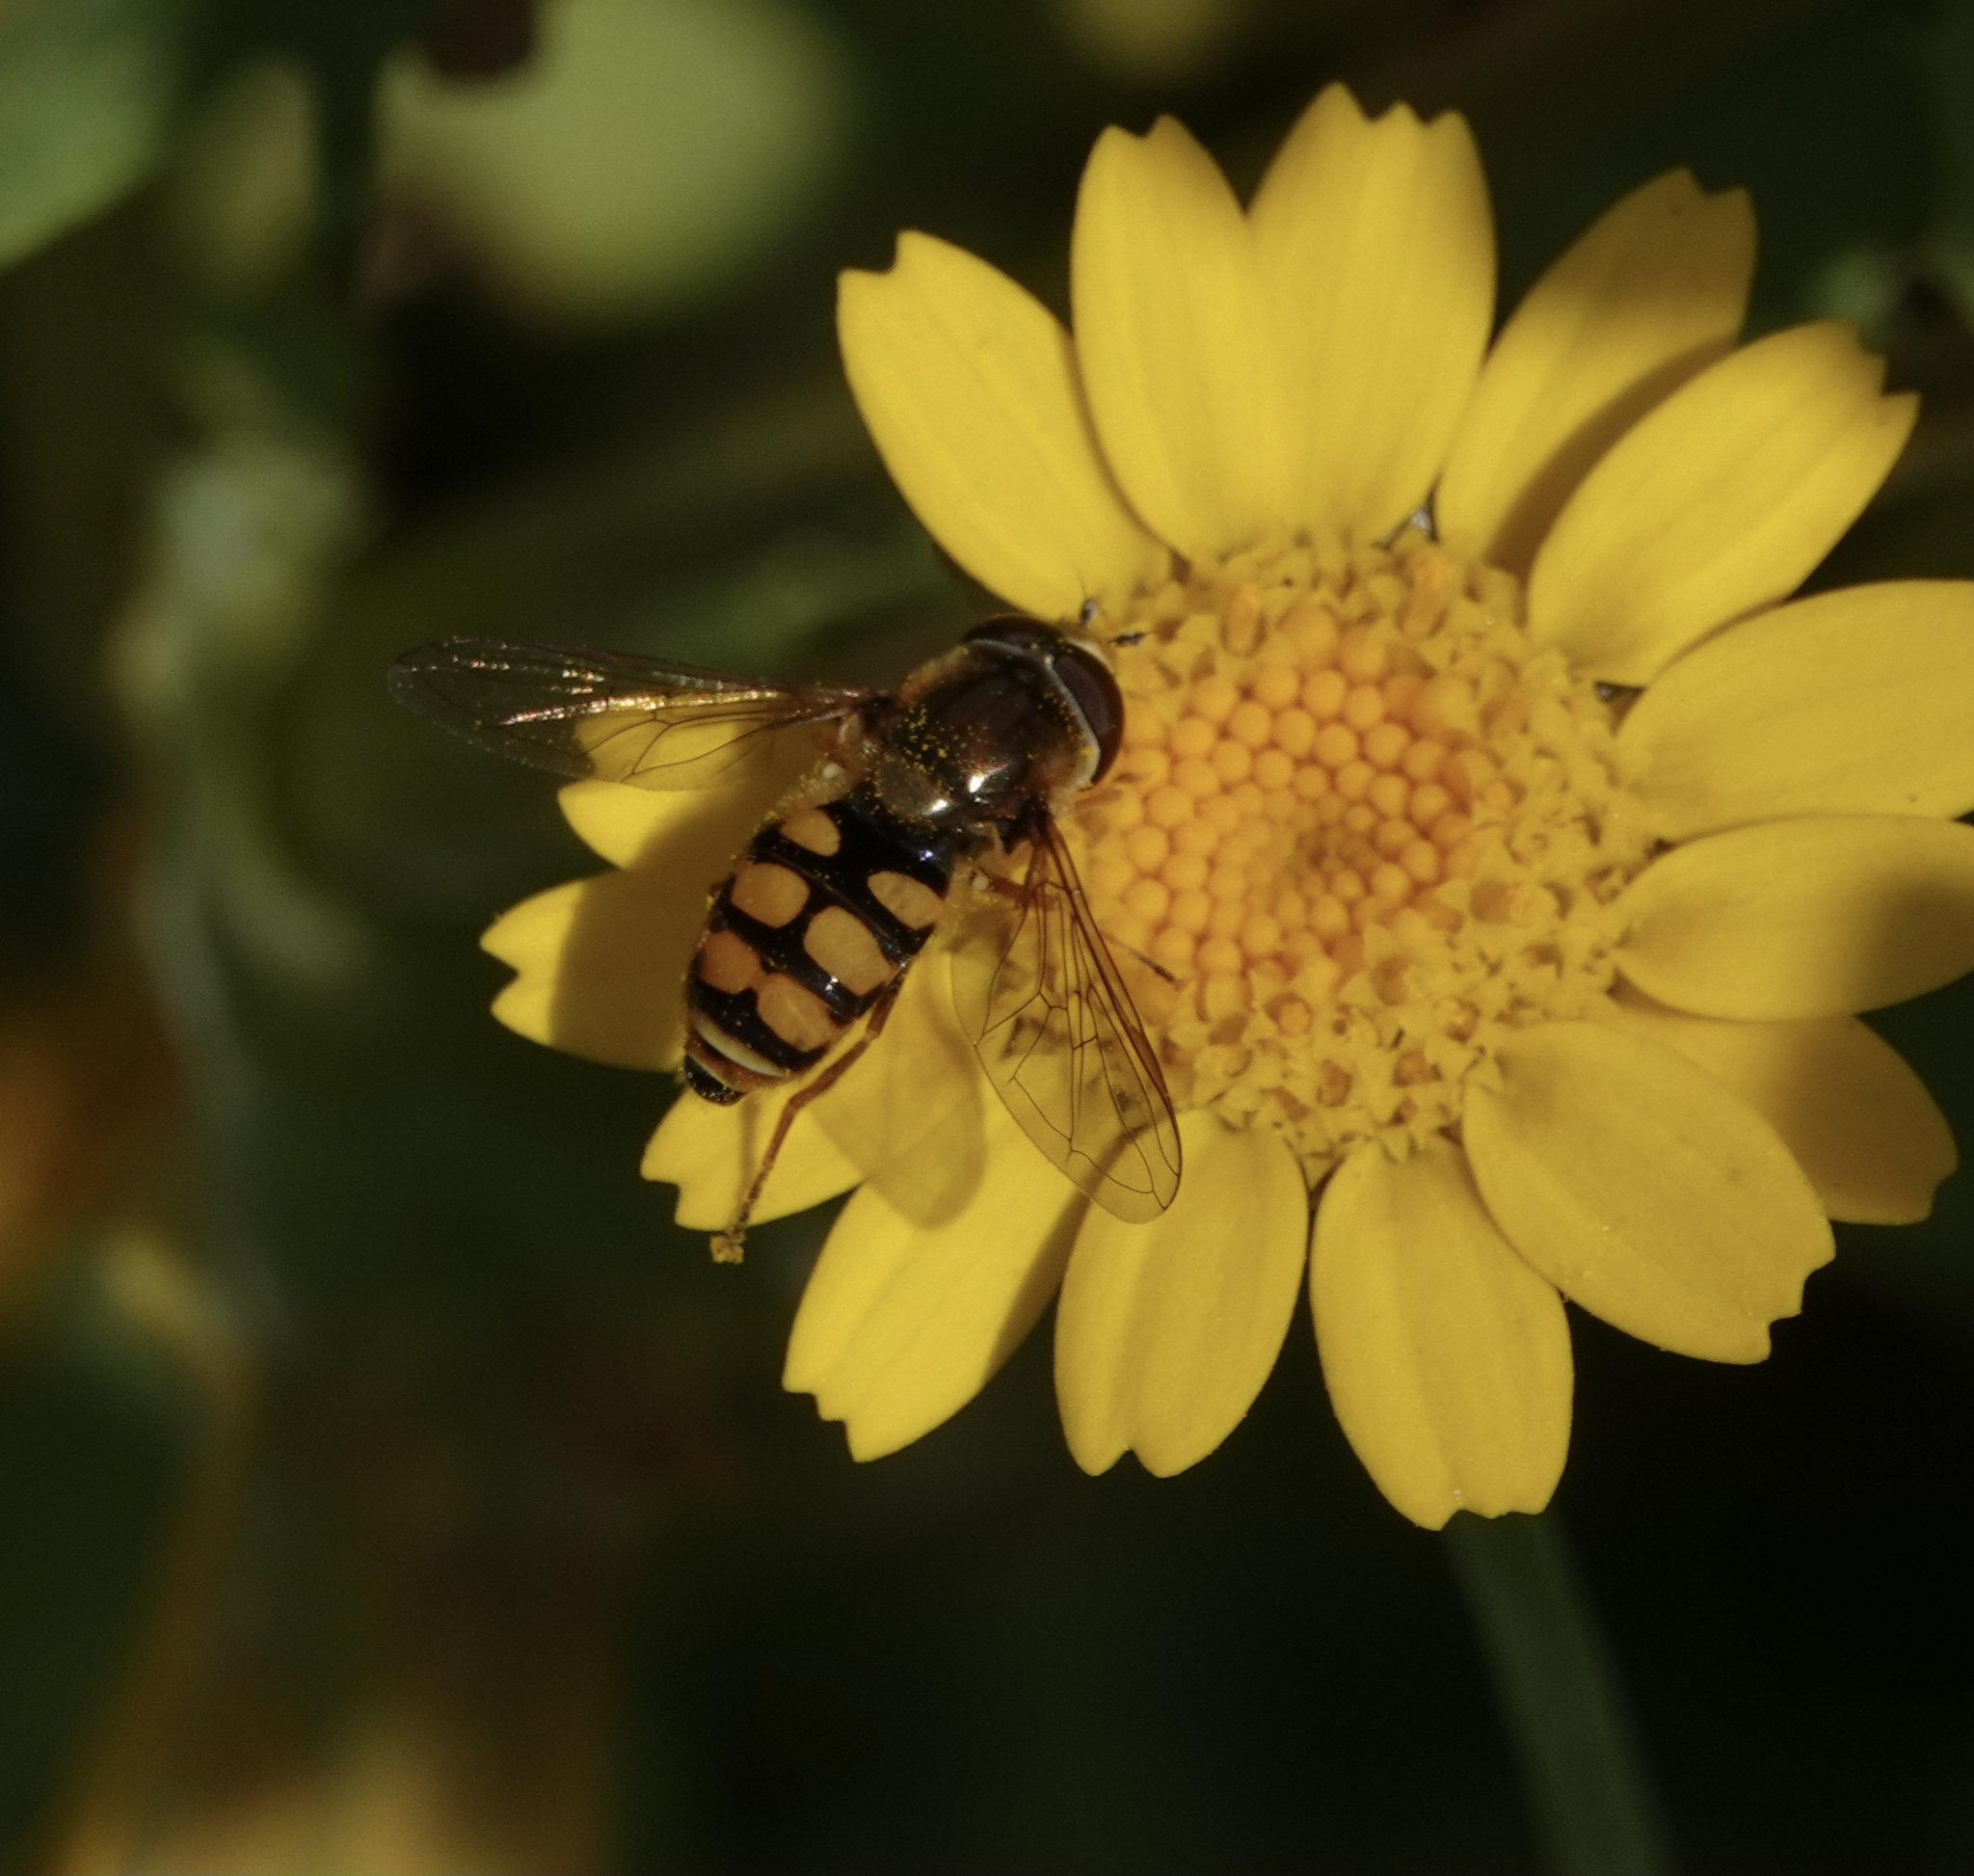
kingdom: Animalia
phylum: Arthropoda
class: Insecta
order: Diptera
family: Syrphidae
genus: Eupeodes
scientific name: Eupeodes corollae
